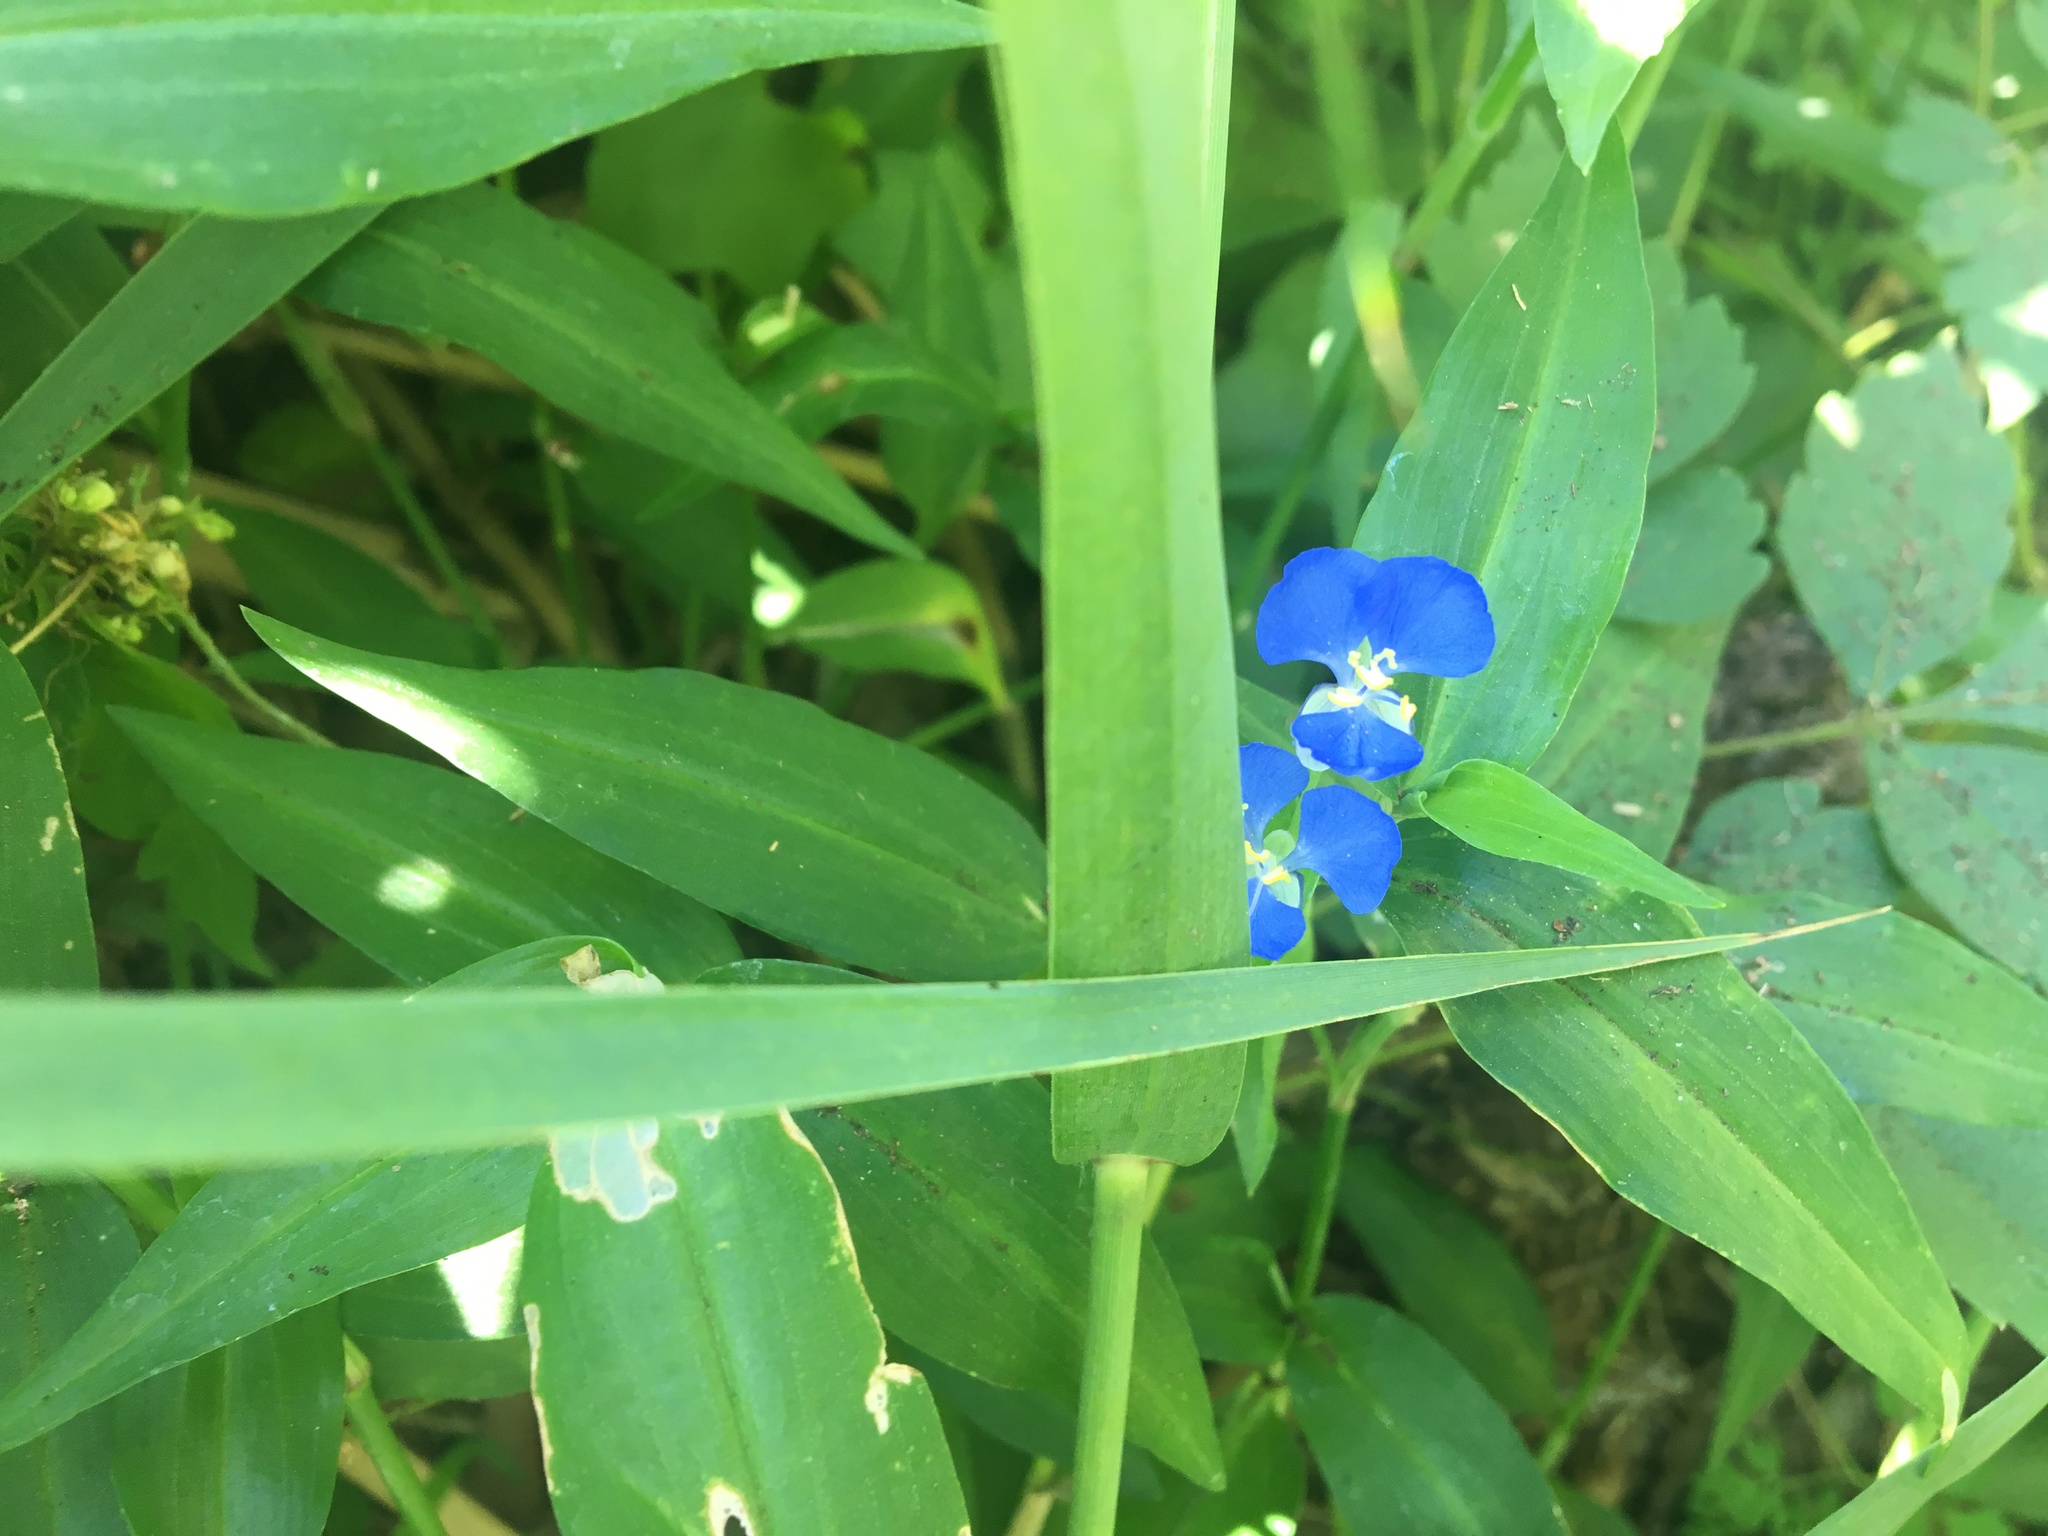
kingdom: Plantae
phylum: Tracheophyta
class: Liliopsida
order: Commelinales
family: Commelinaceae
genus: Commelina
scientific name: Commelina cyanea
